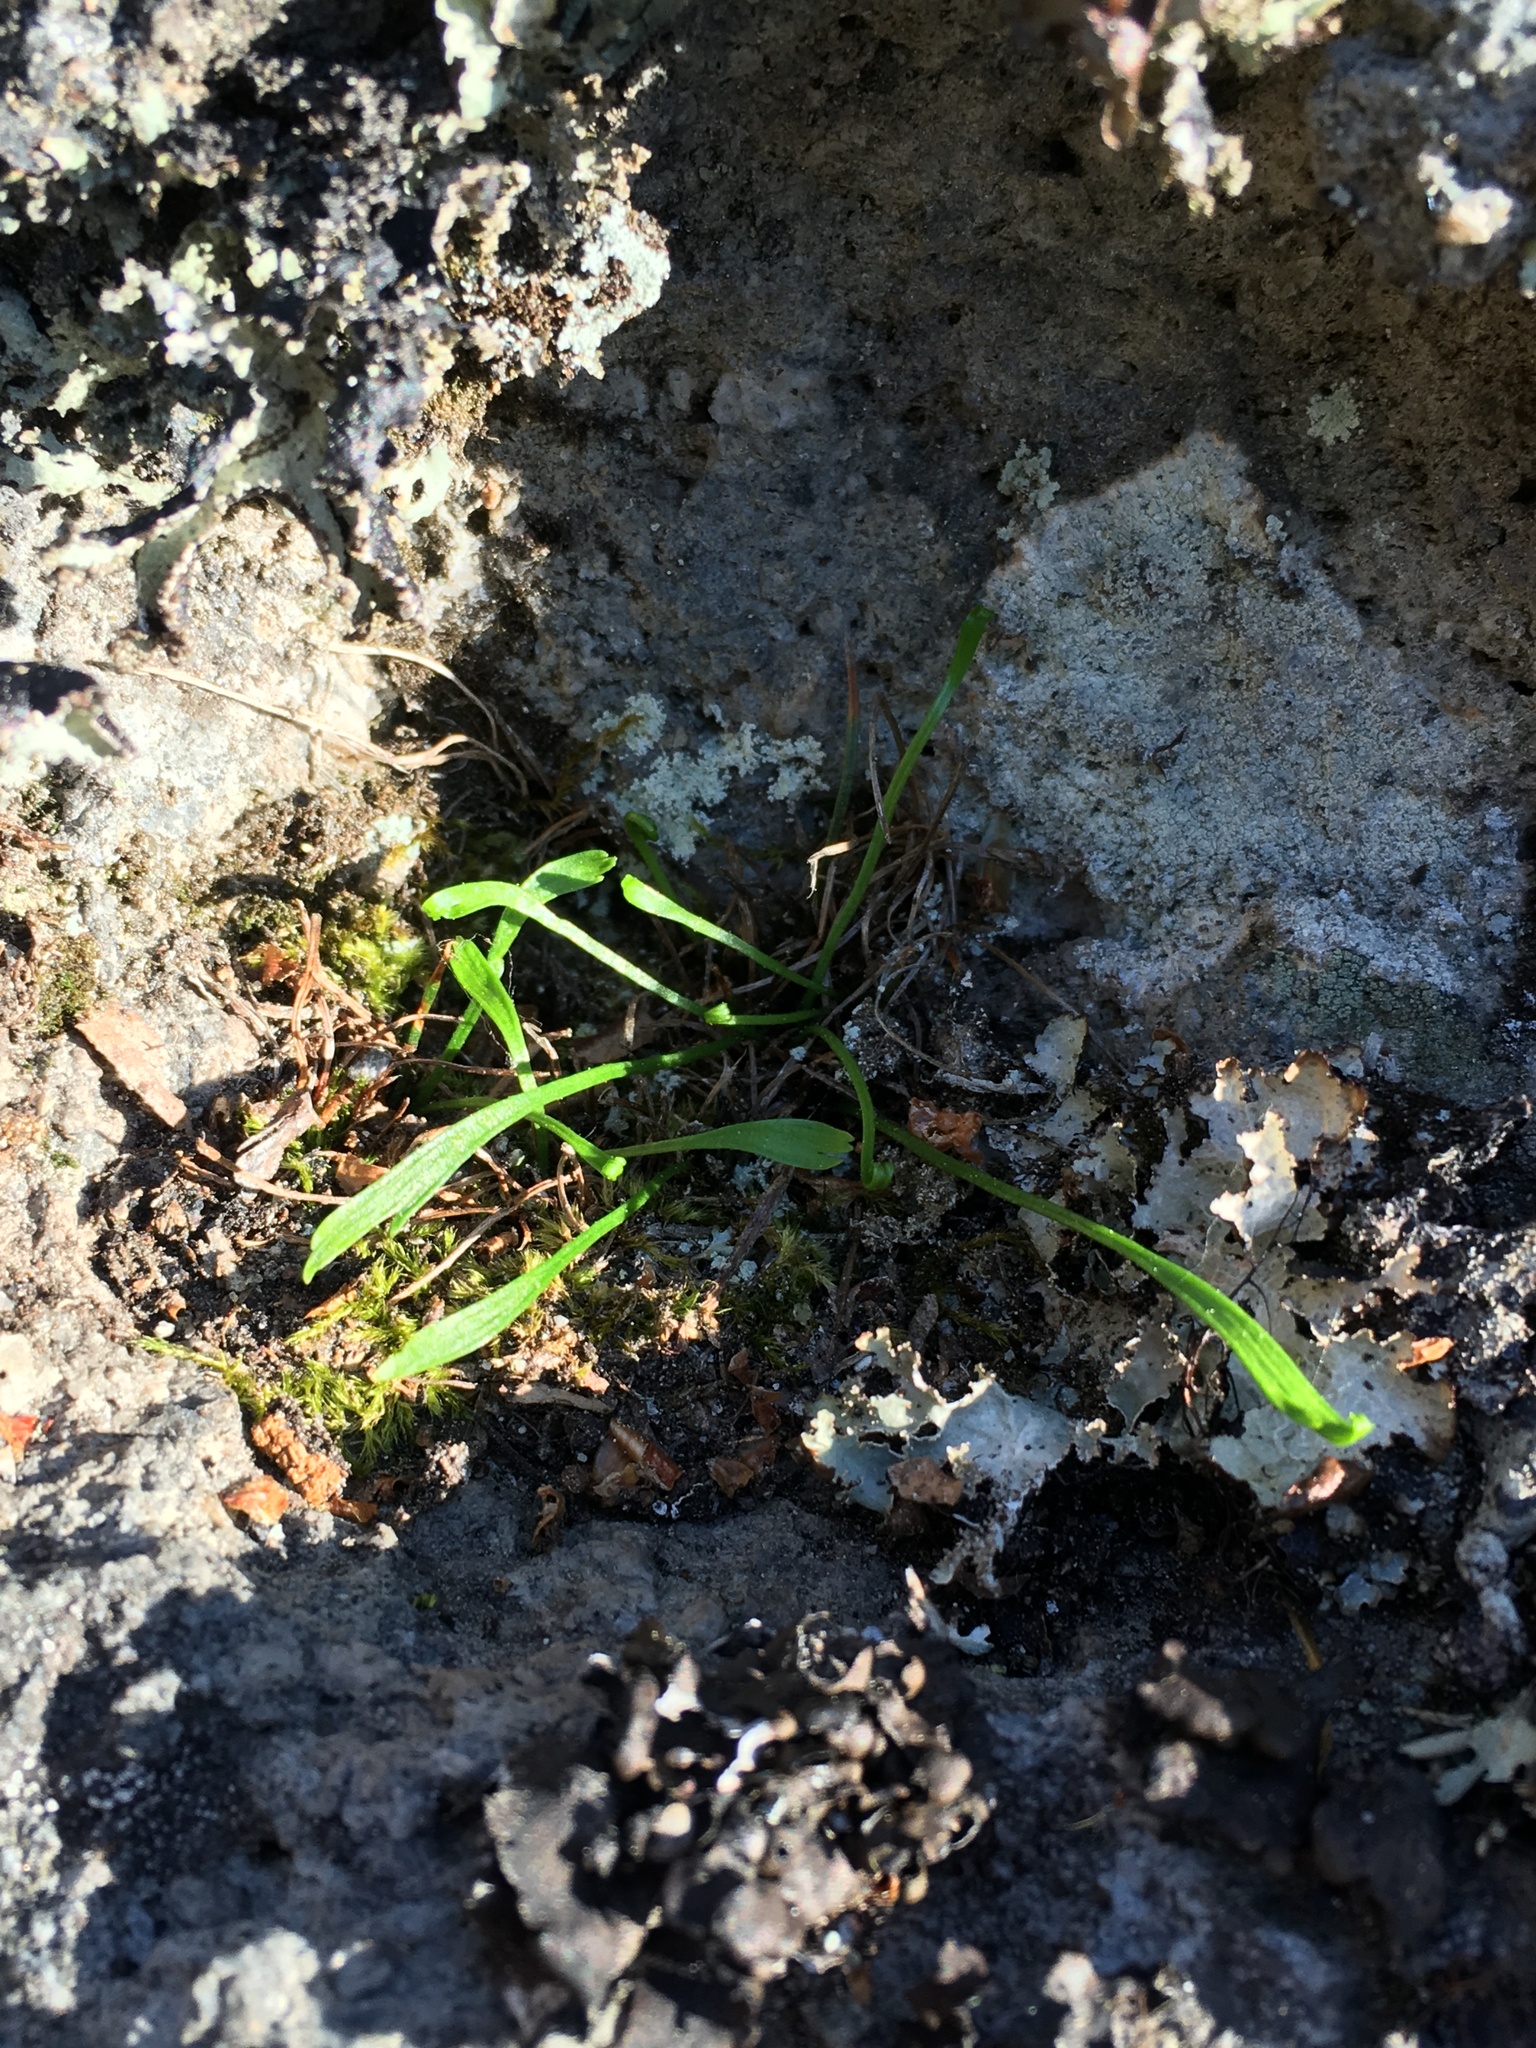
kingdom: Plantae
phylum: Tracheophyta
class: Polypodiopsida
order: Polypodiales
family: Aspleniaceae
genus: Asplenium
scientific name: Asplenium septentrionale
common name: Forked spleenwort
